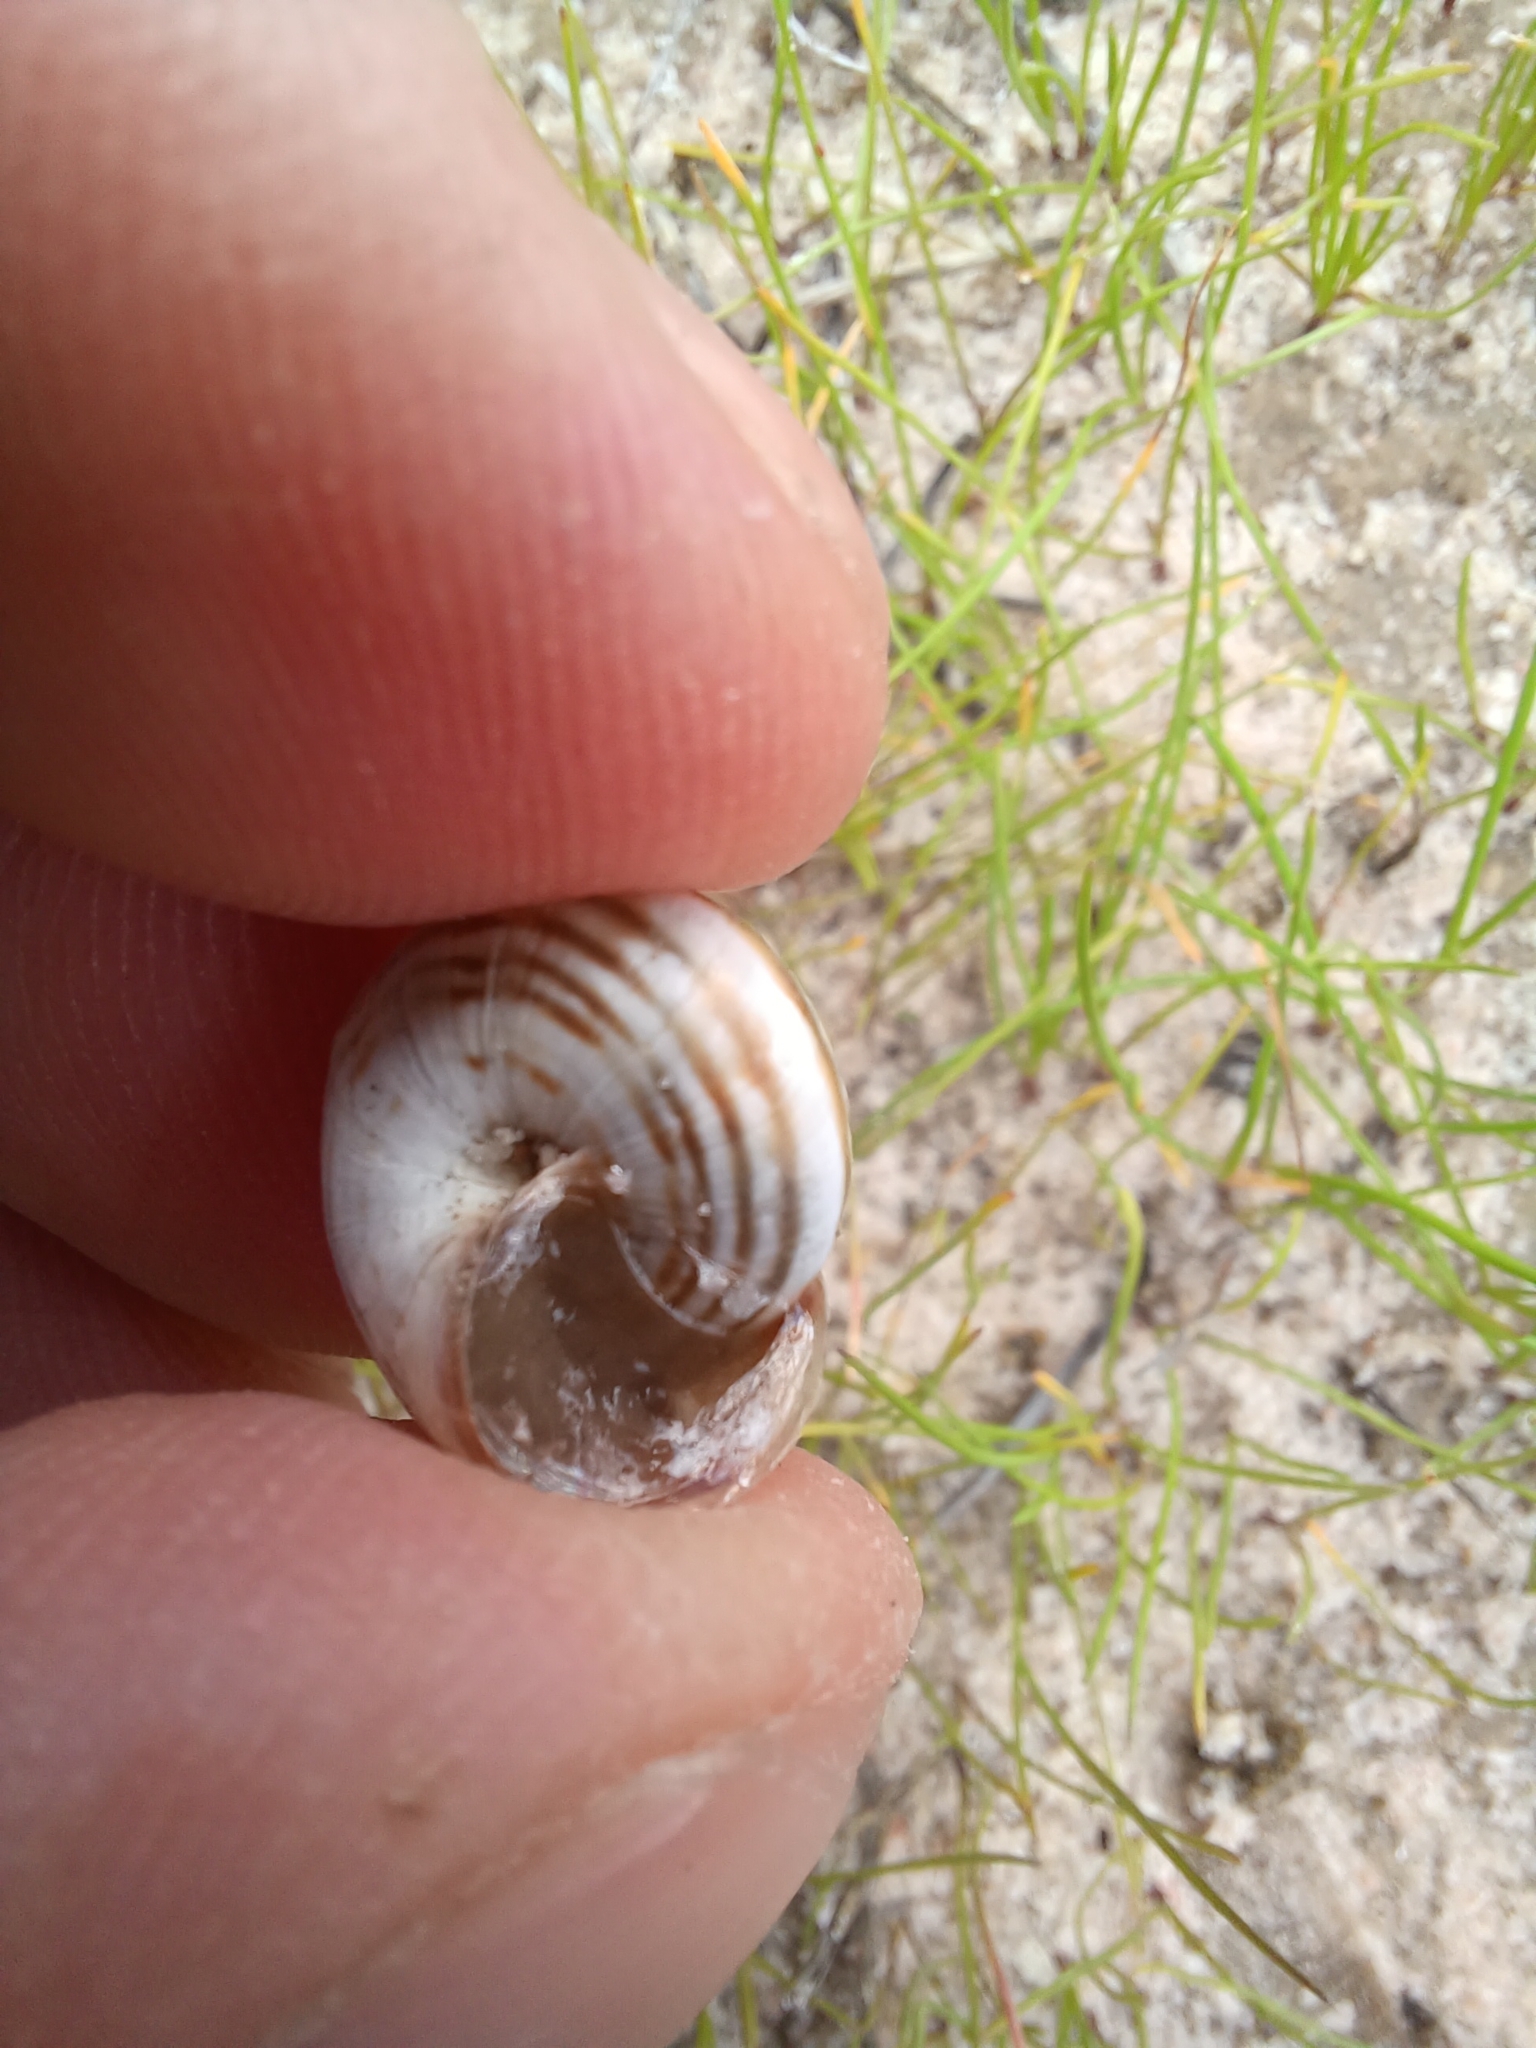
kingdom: Animalia
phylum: Mollusca
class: Gastropoda
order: Stylommatophora
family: Geomitridae
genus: Cernuella
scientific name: Cernuella virgata
